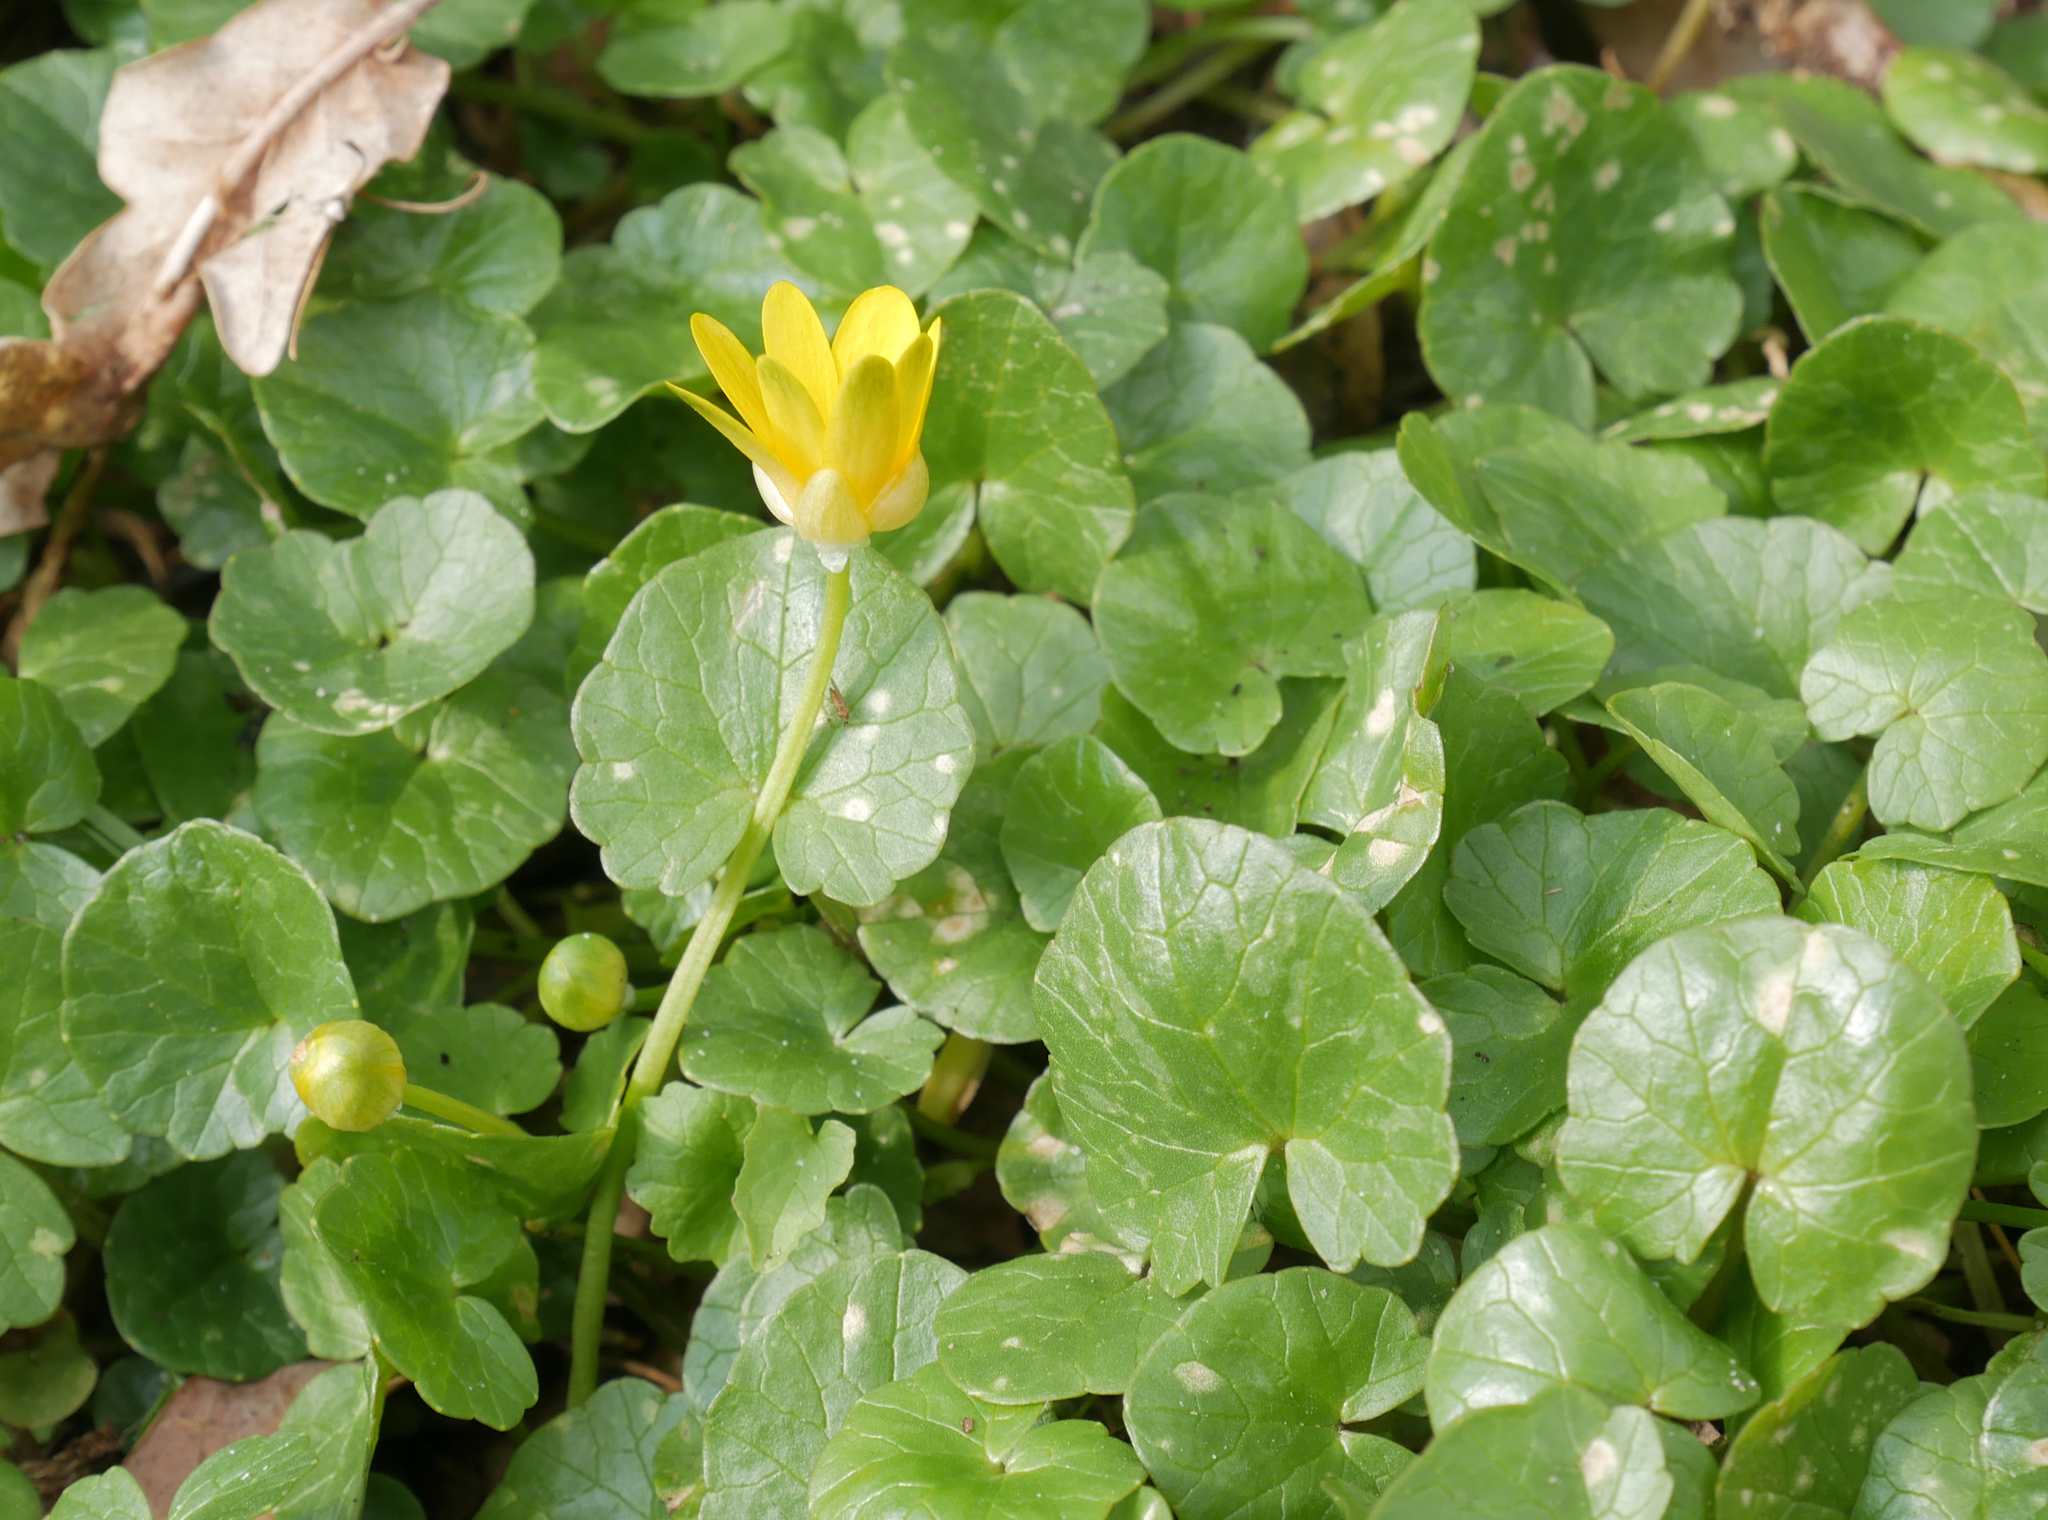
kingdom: Plantae
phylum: Tracheophyta
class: Magnoliopsida
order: Ranunculales
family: Ranunculaceae
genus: Ficaria
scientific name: Ficaria verna
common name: Lesser celandine
